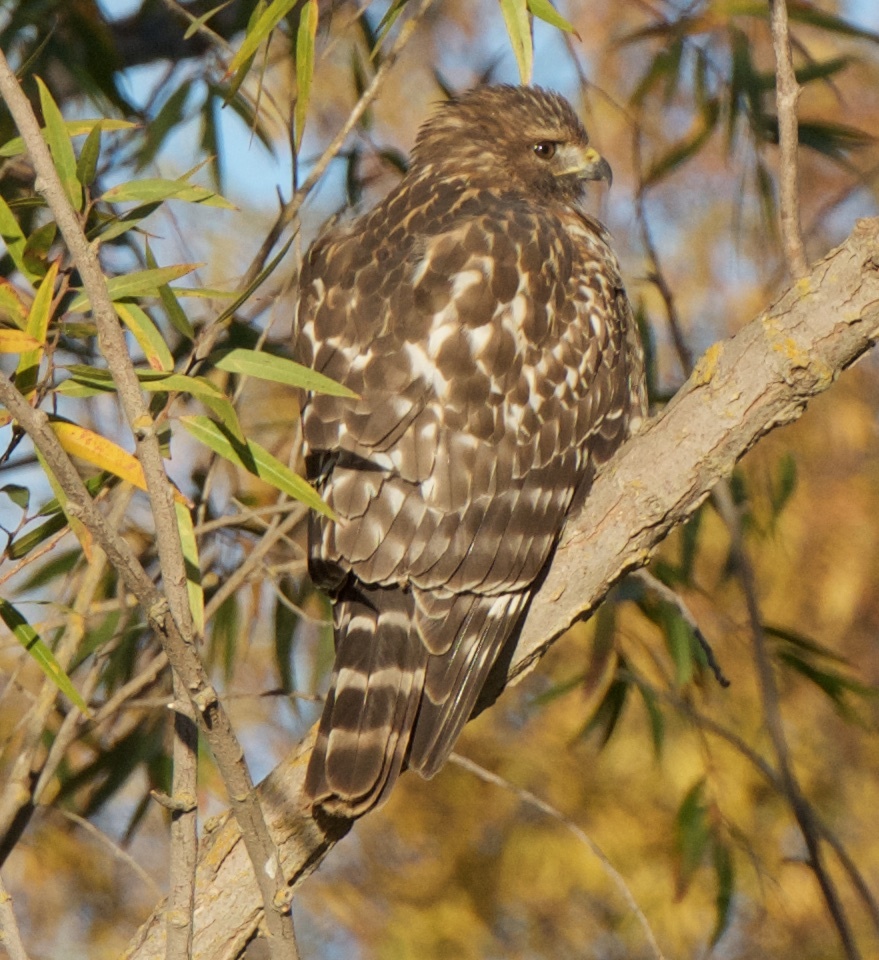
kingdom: Animalia
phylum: Chordata
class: Aves
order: Accipitriformes
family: Accipitridae
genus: Buteo
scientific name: Buteo lineatus
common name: Red-shouldered hawk
